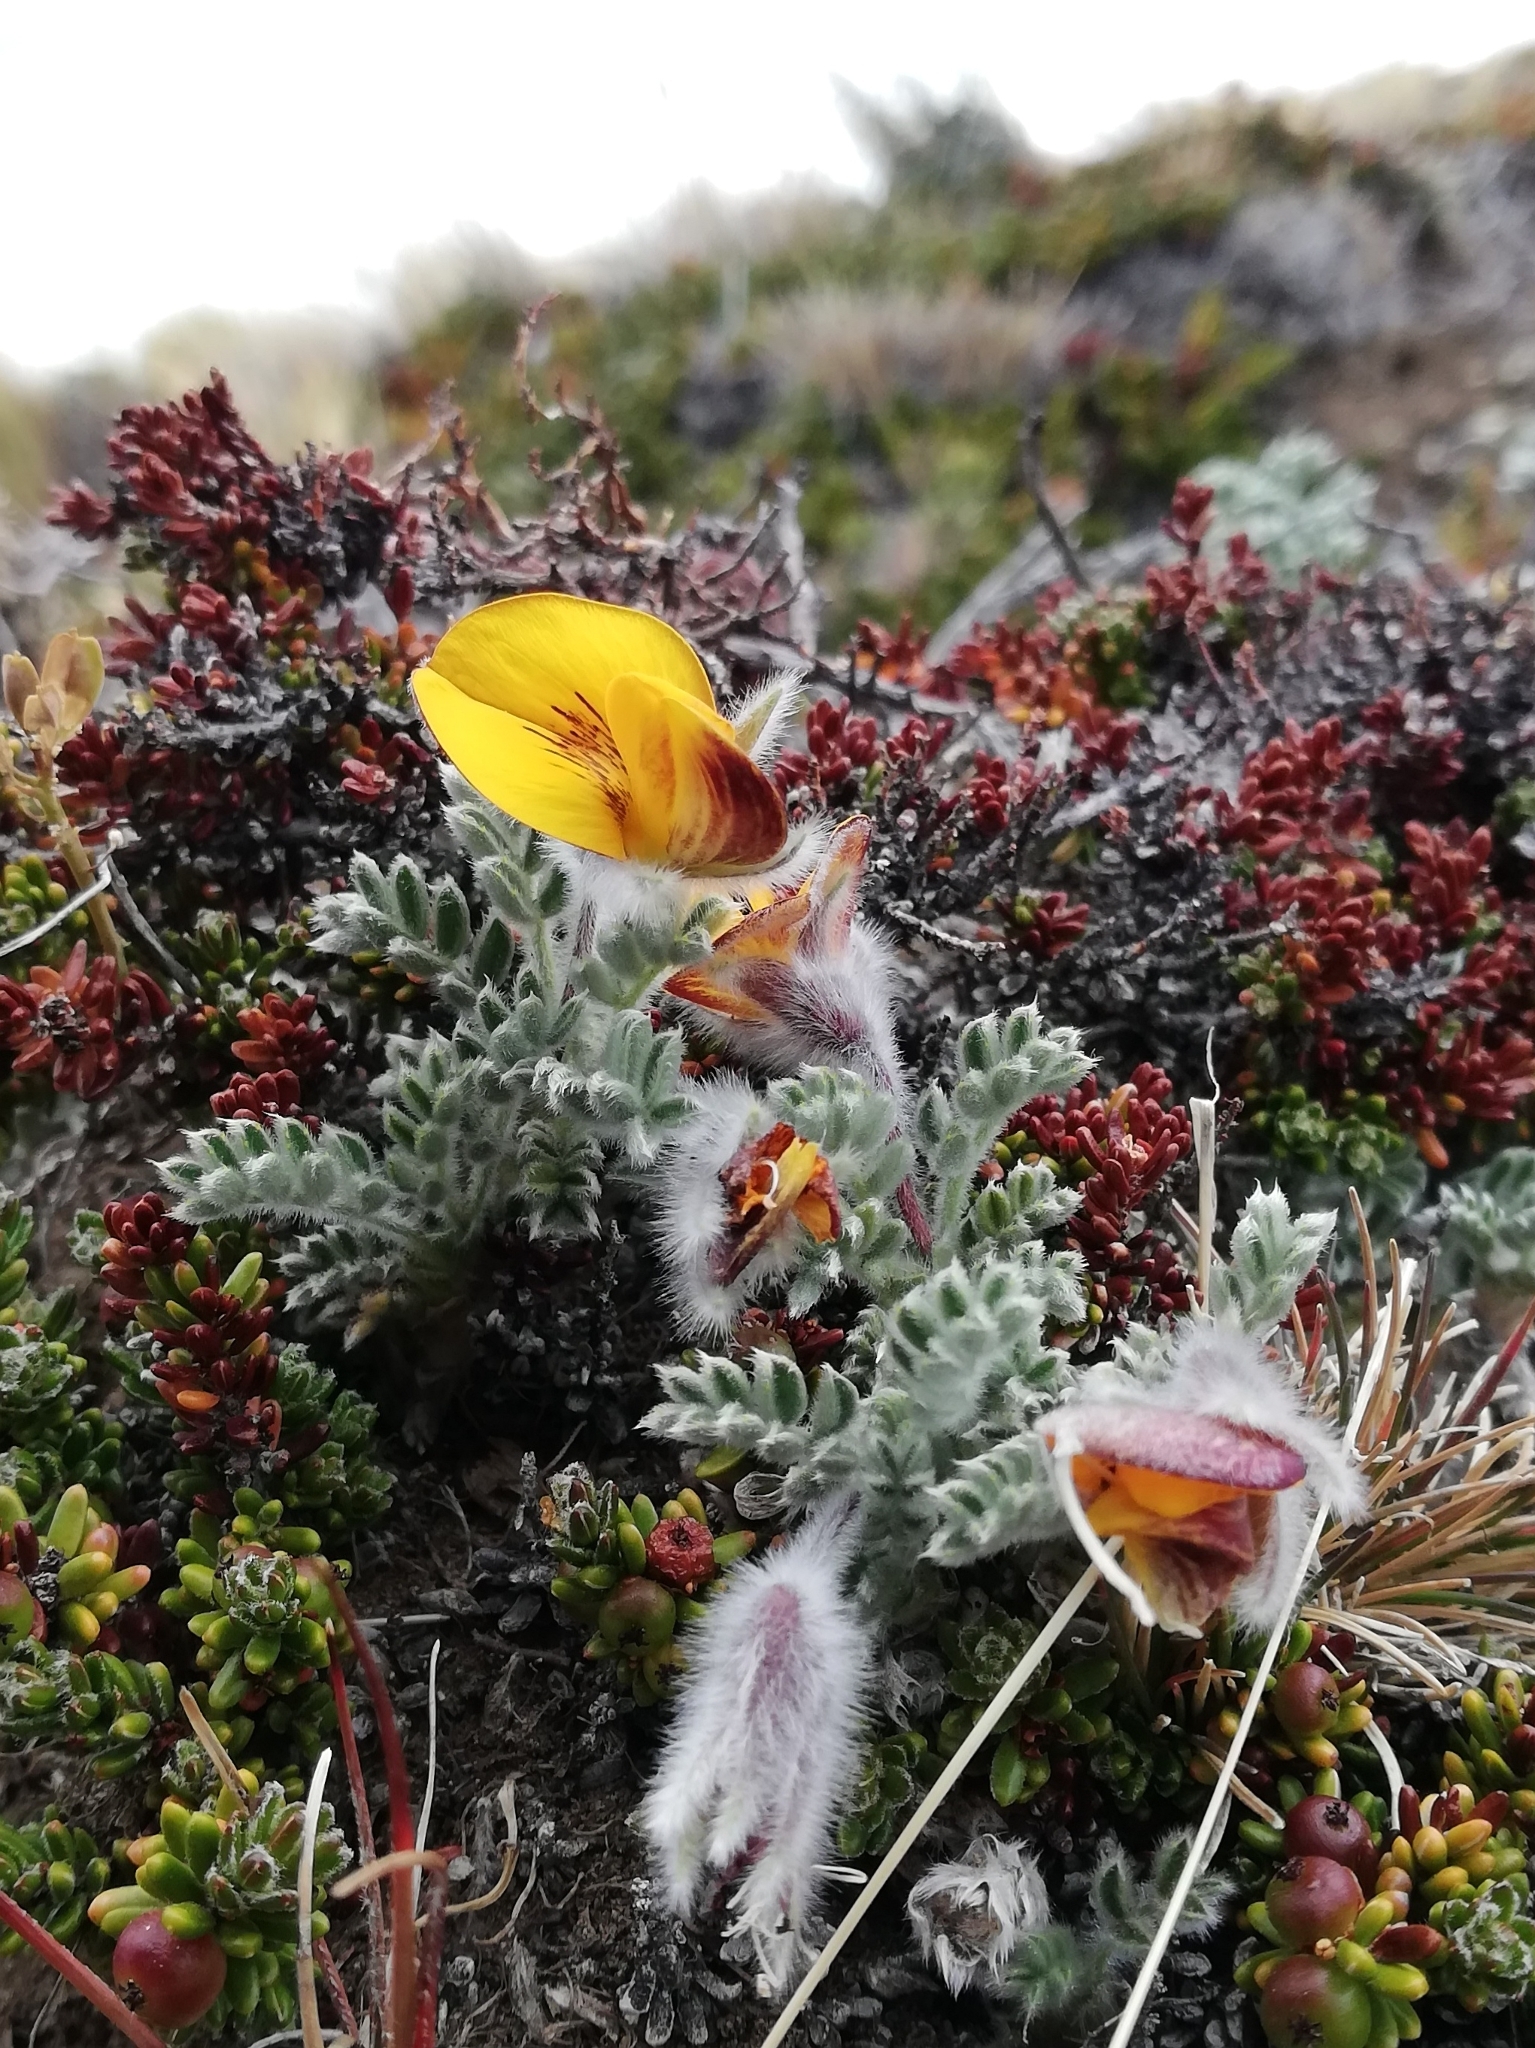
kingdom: Plantae
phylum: Tracheophyta
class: Magnoliopsida
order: Fabales
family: Fabaceae
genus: Adesmia
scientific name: Adesmia villosa
